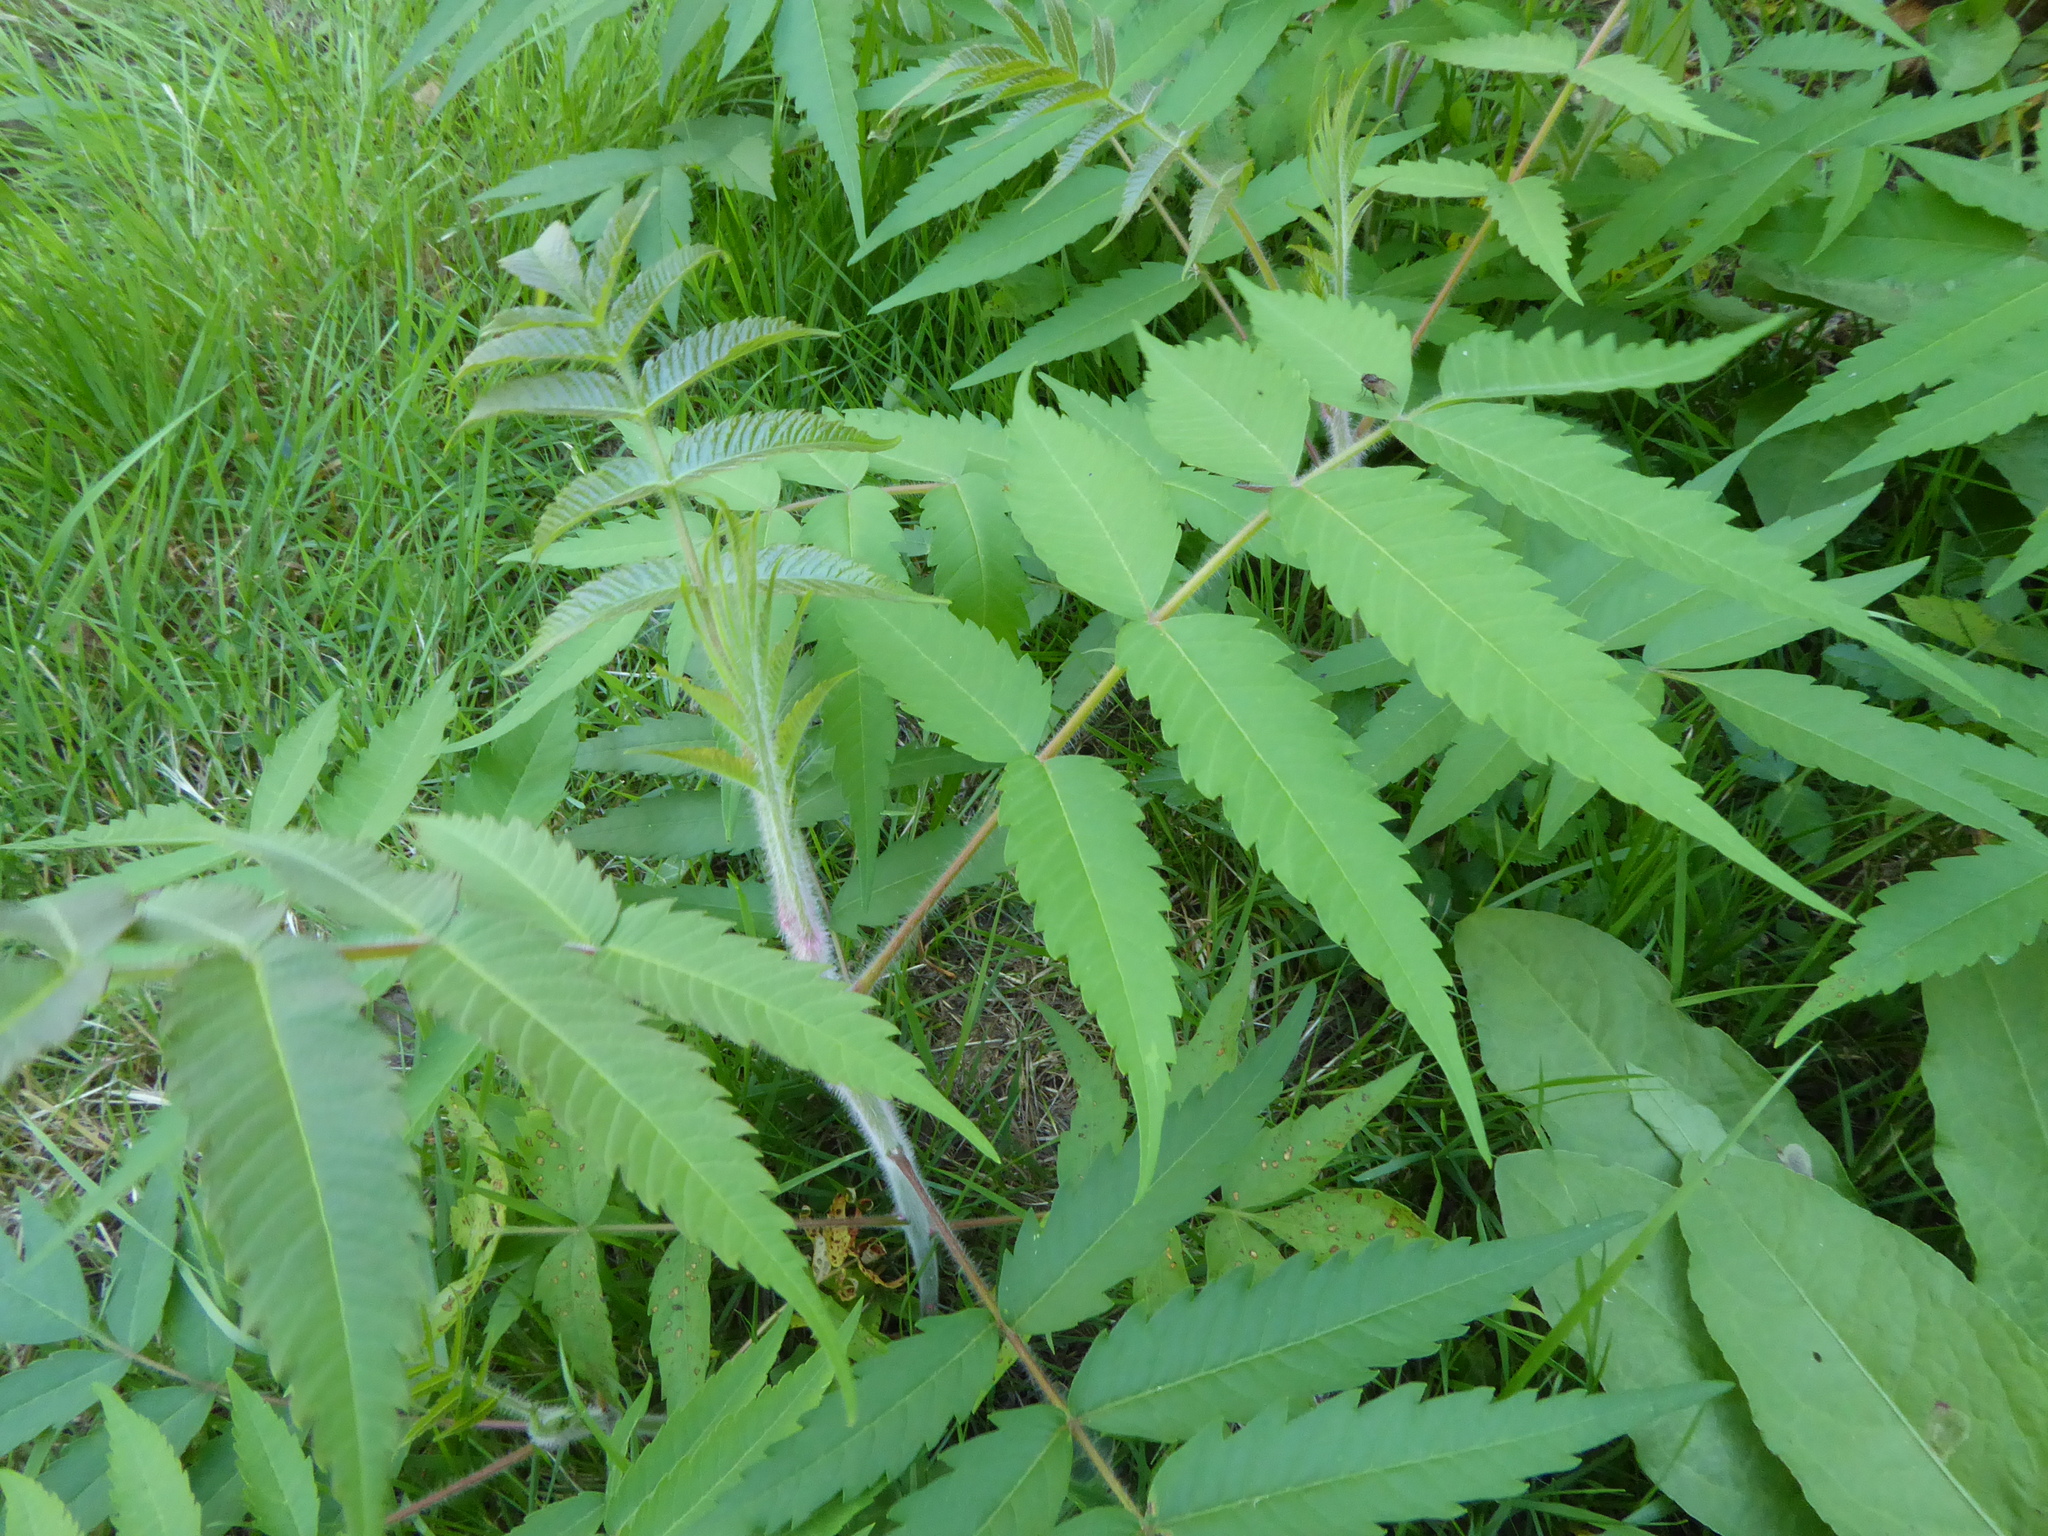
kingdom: Plantae
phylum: Tracheophyta
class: Magnoliopsida
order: Sapindales
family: Anacardiaceae
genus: Rhus
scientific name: Rhus typhina
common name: Staghorn sumac
